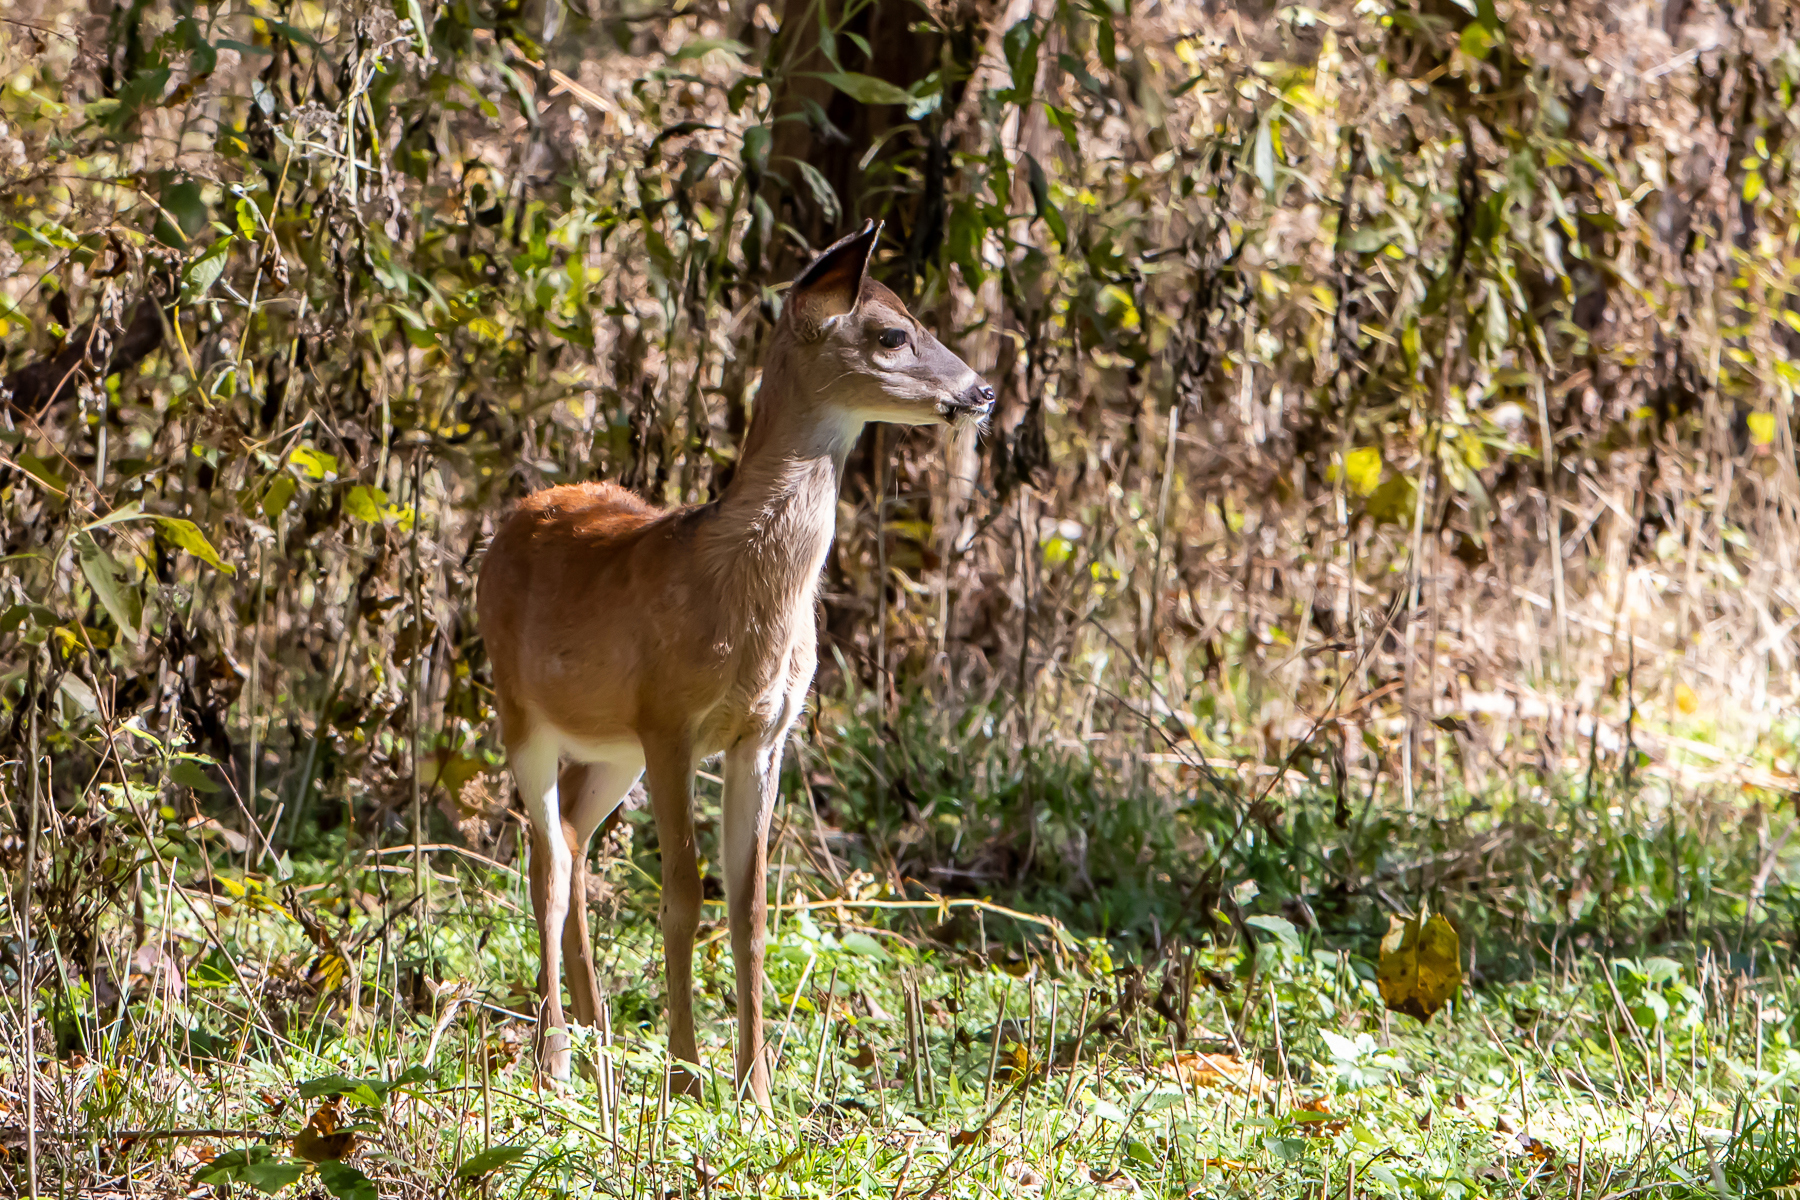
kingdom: Animalia
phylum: Chordata
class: Mammalia
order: Artiodactyla
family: Cervidae
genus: Odocoileus
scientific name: Odocoileus virginianus
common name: White-tailed deer
